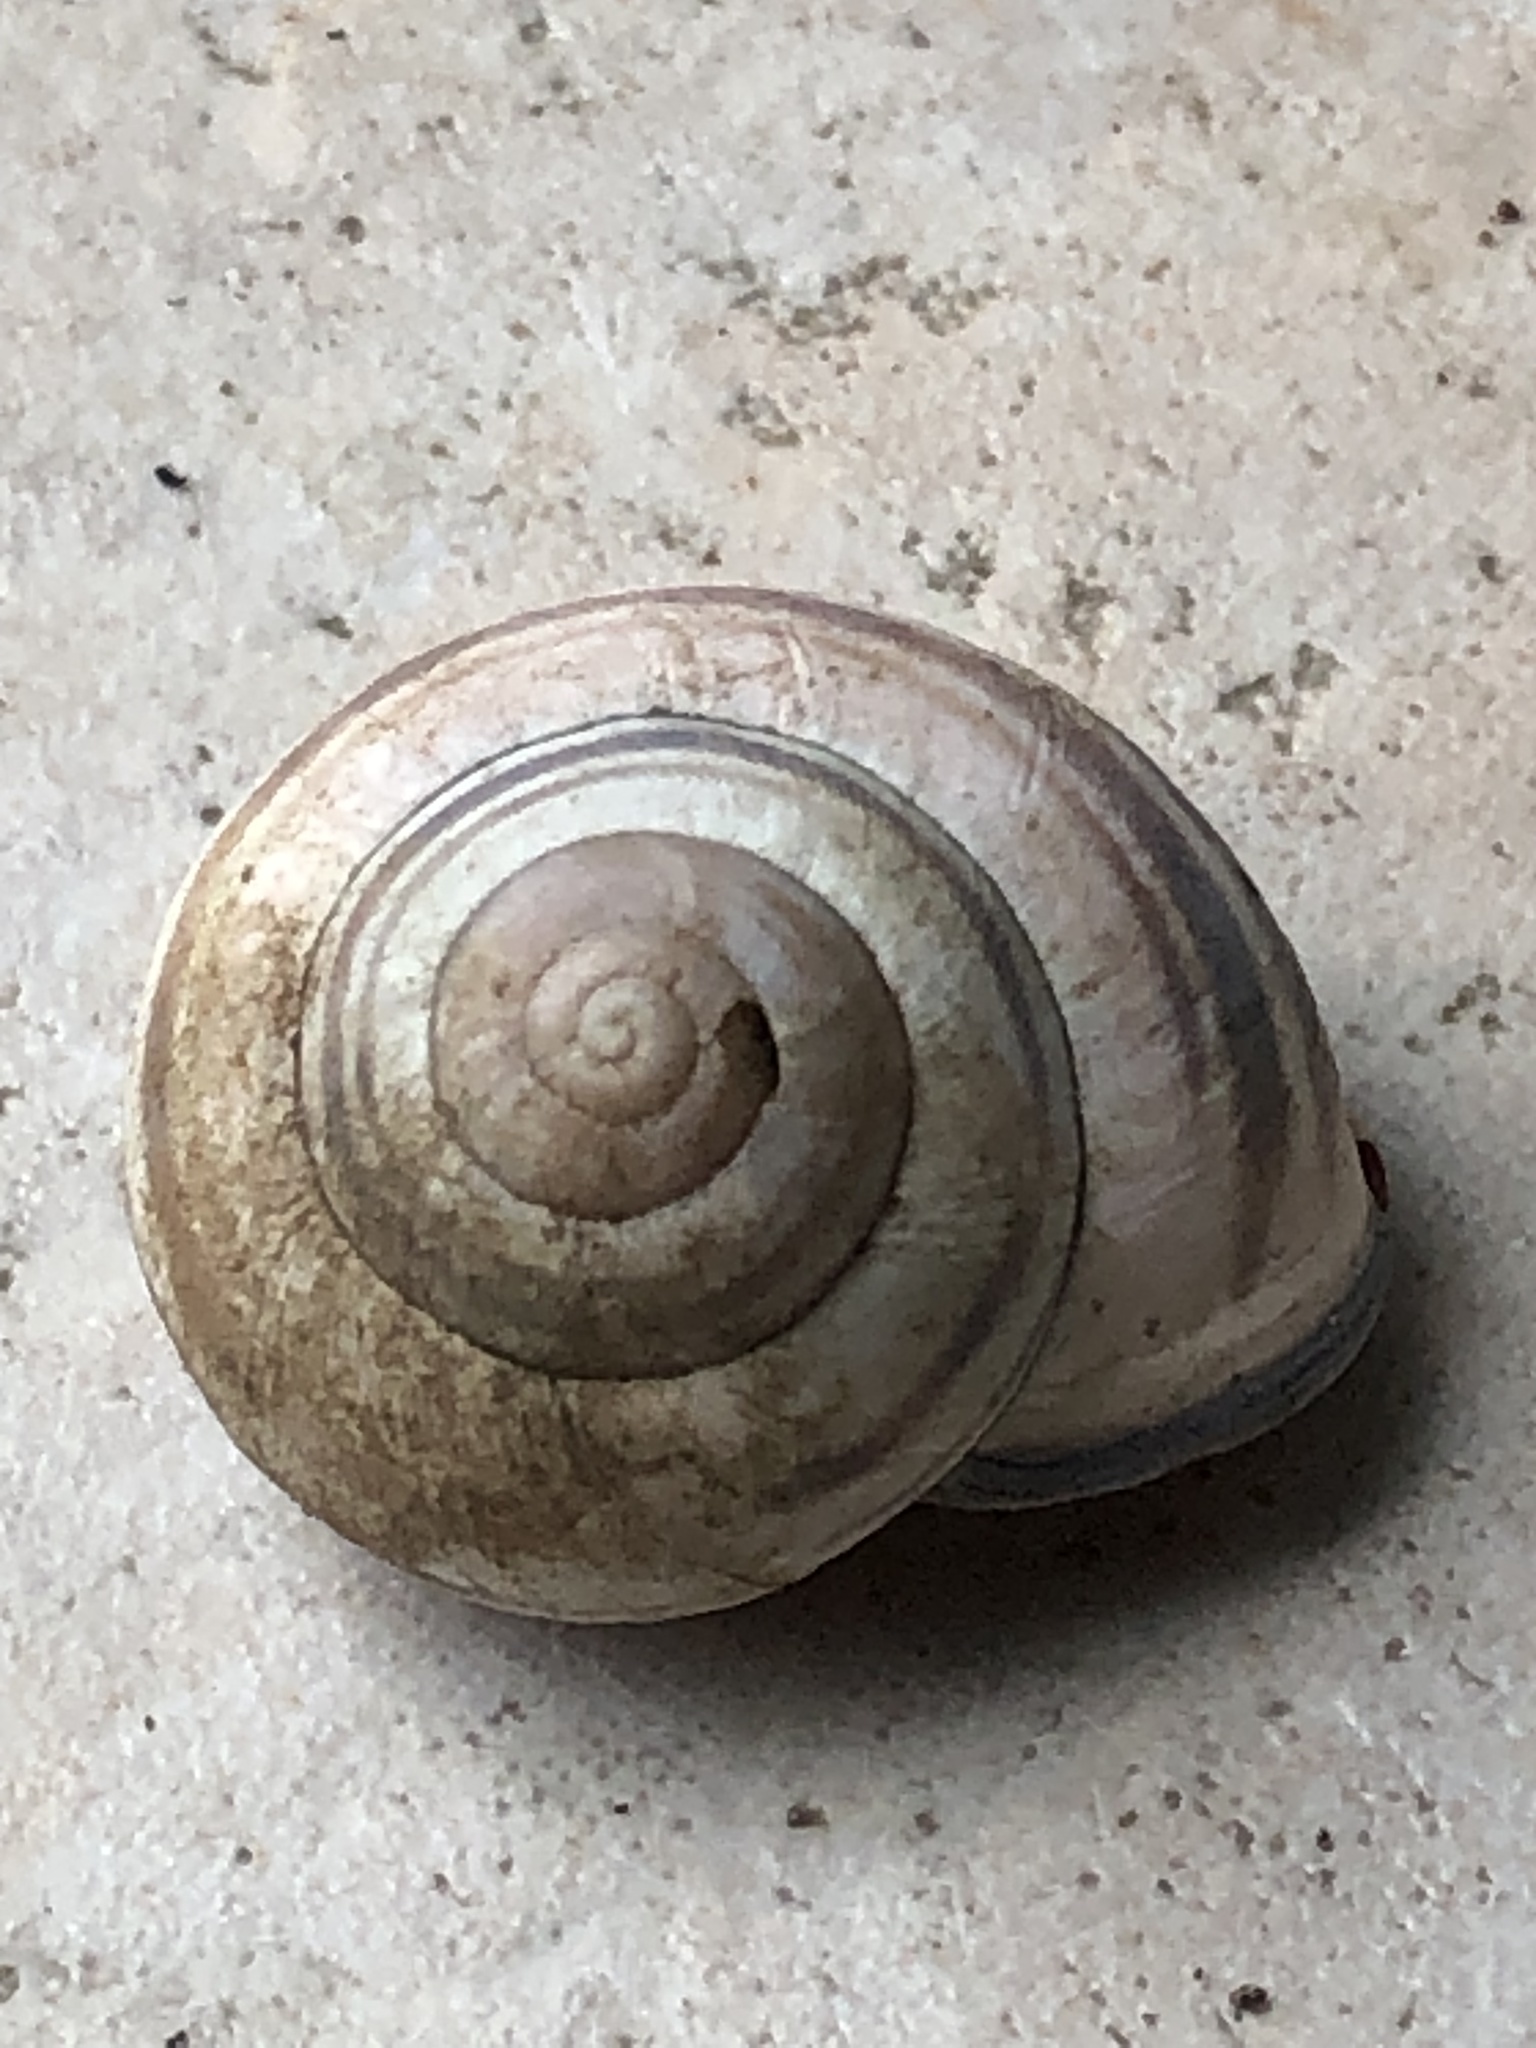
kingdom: Animalia
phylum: Mollusca
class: Gastropoda
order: Stylommatophora
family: Helicidae
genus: Cepaea
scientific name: Cepaea nemoralis
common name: Grovesnail
